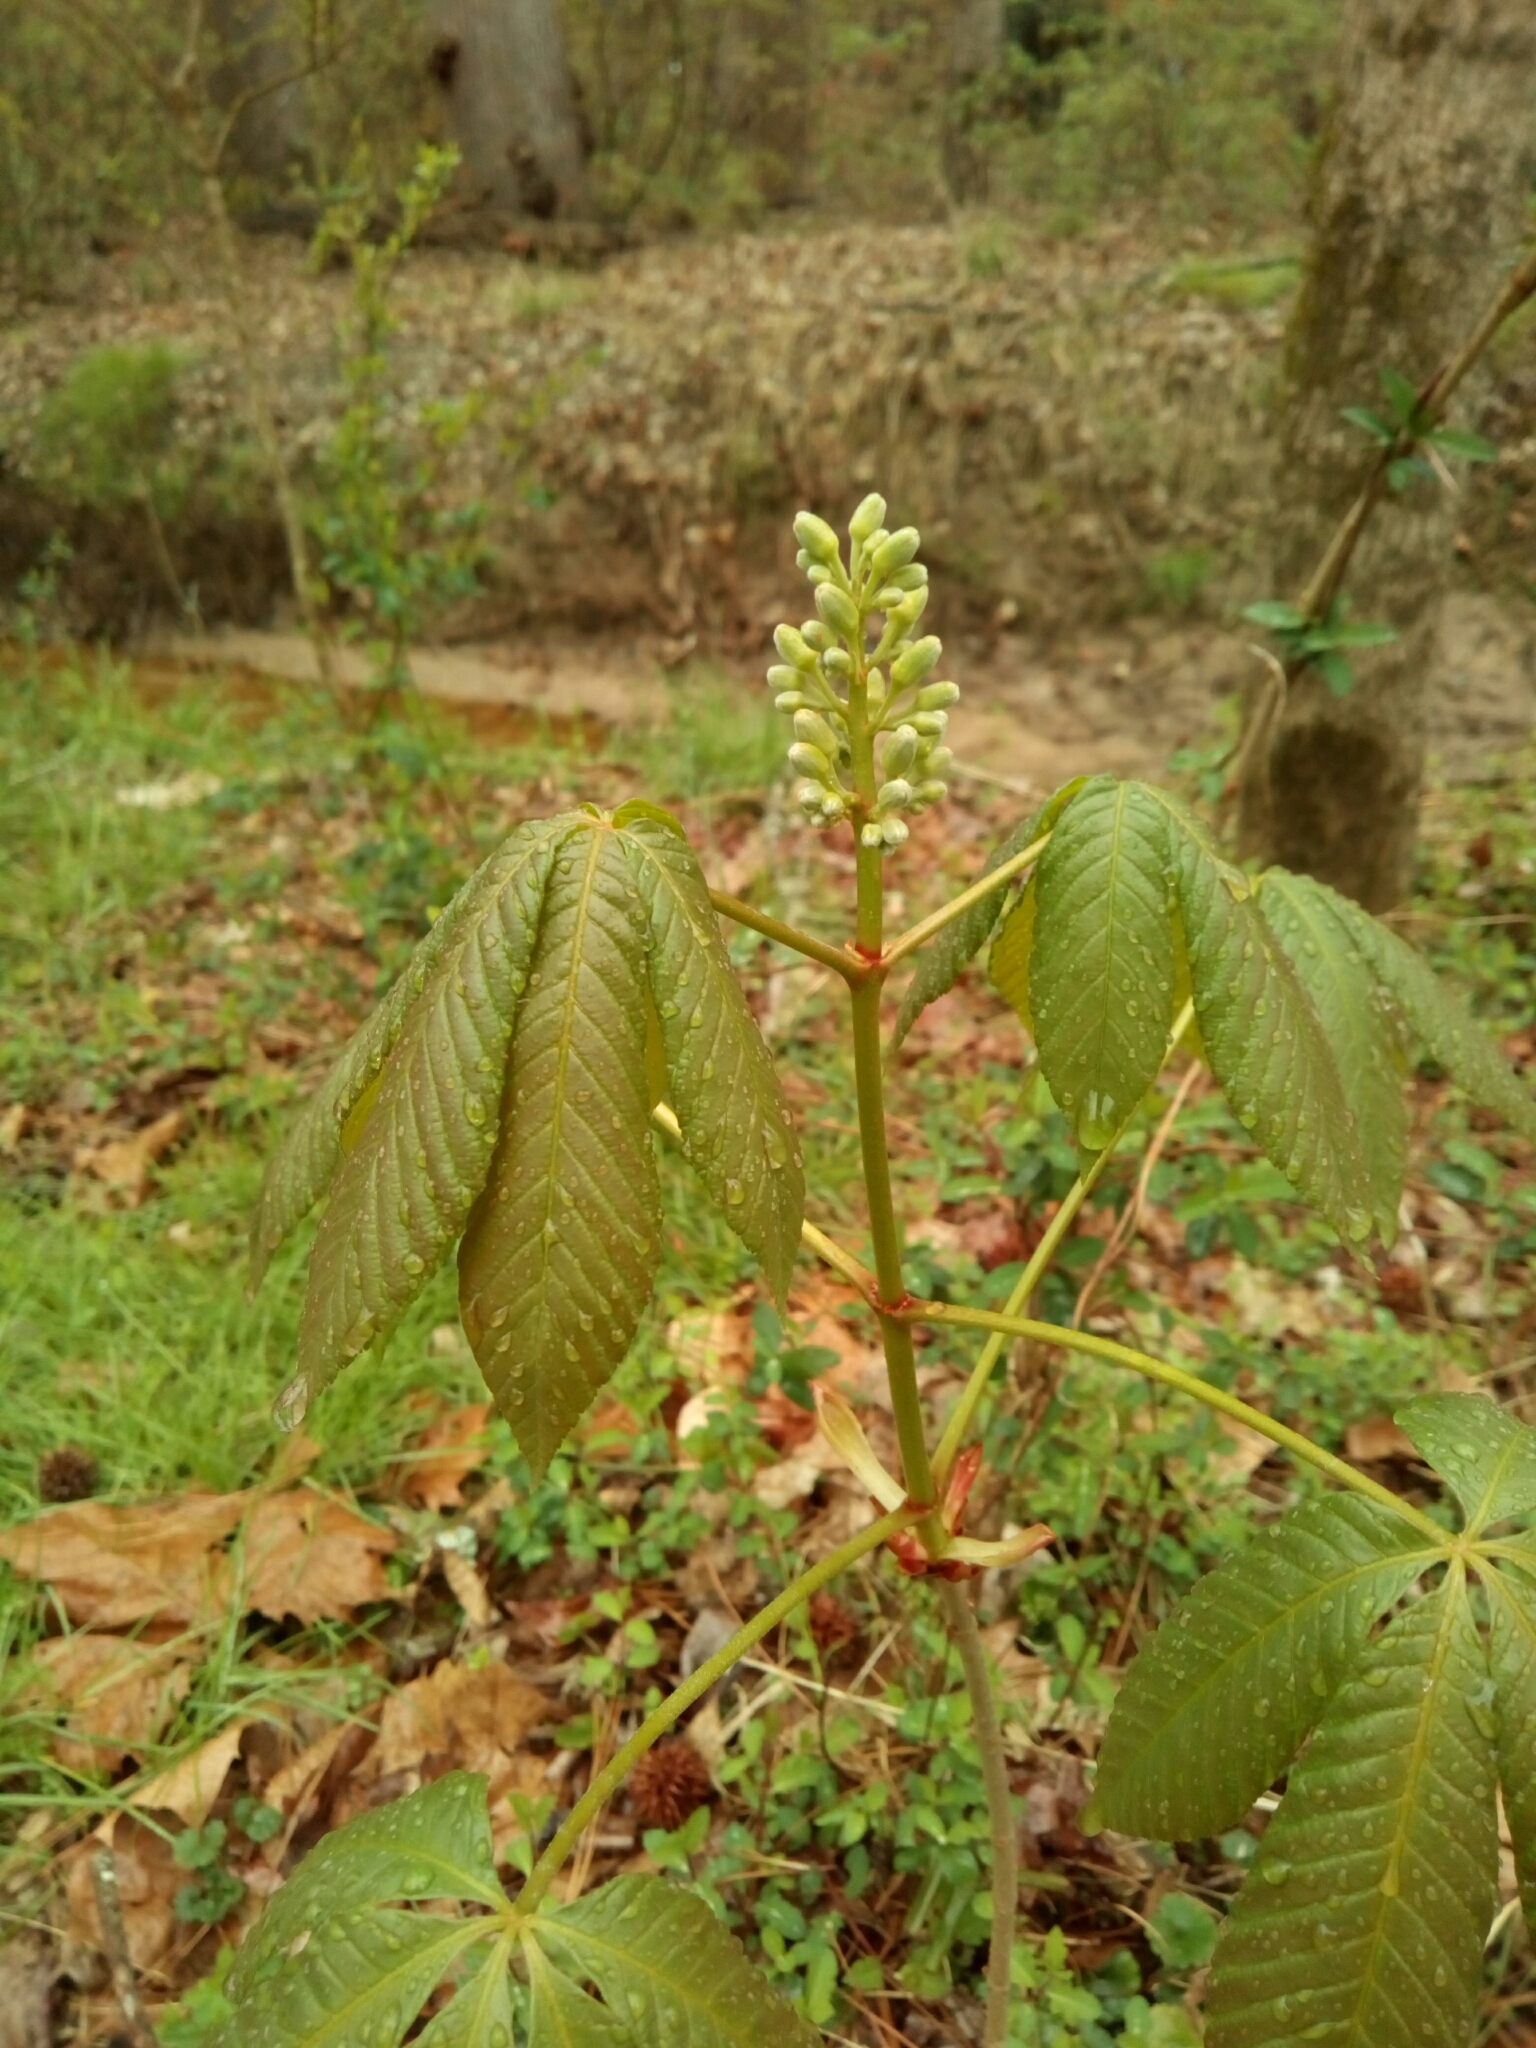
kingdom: Plantae
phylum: Tracheophyta
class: Magnoliopsida
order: Sapindales
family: Sapindaceae
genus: Aesculus
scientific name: Aesculus sylvatica
